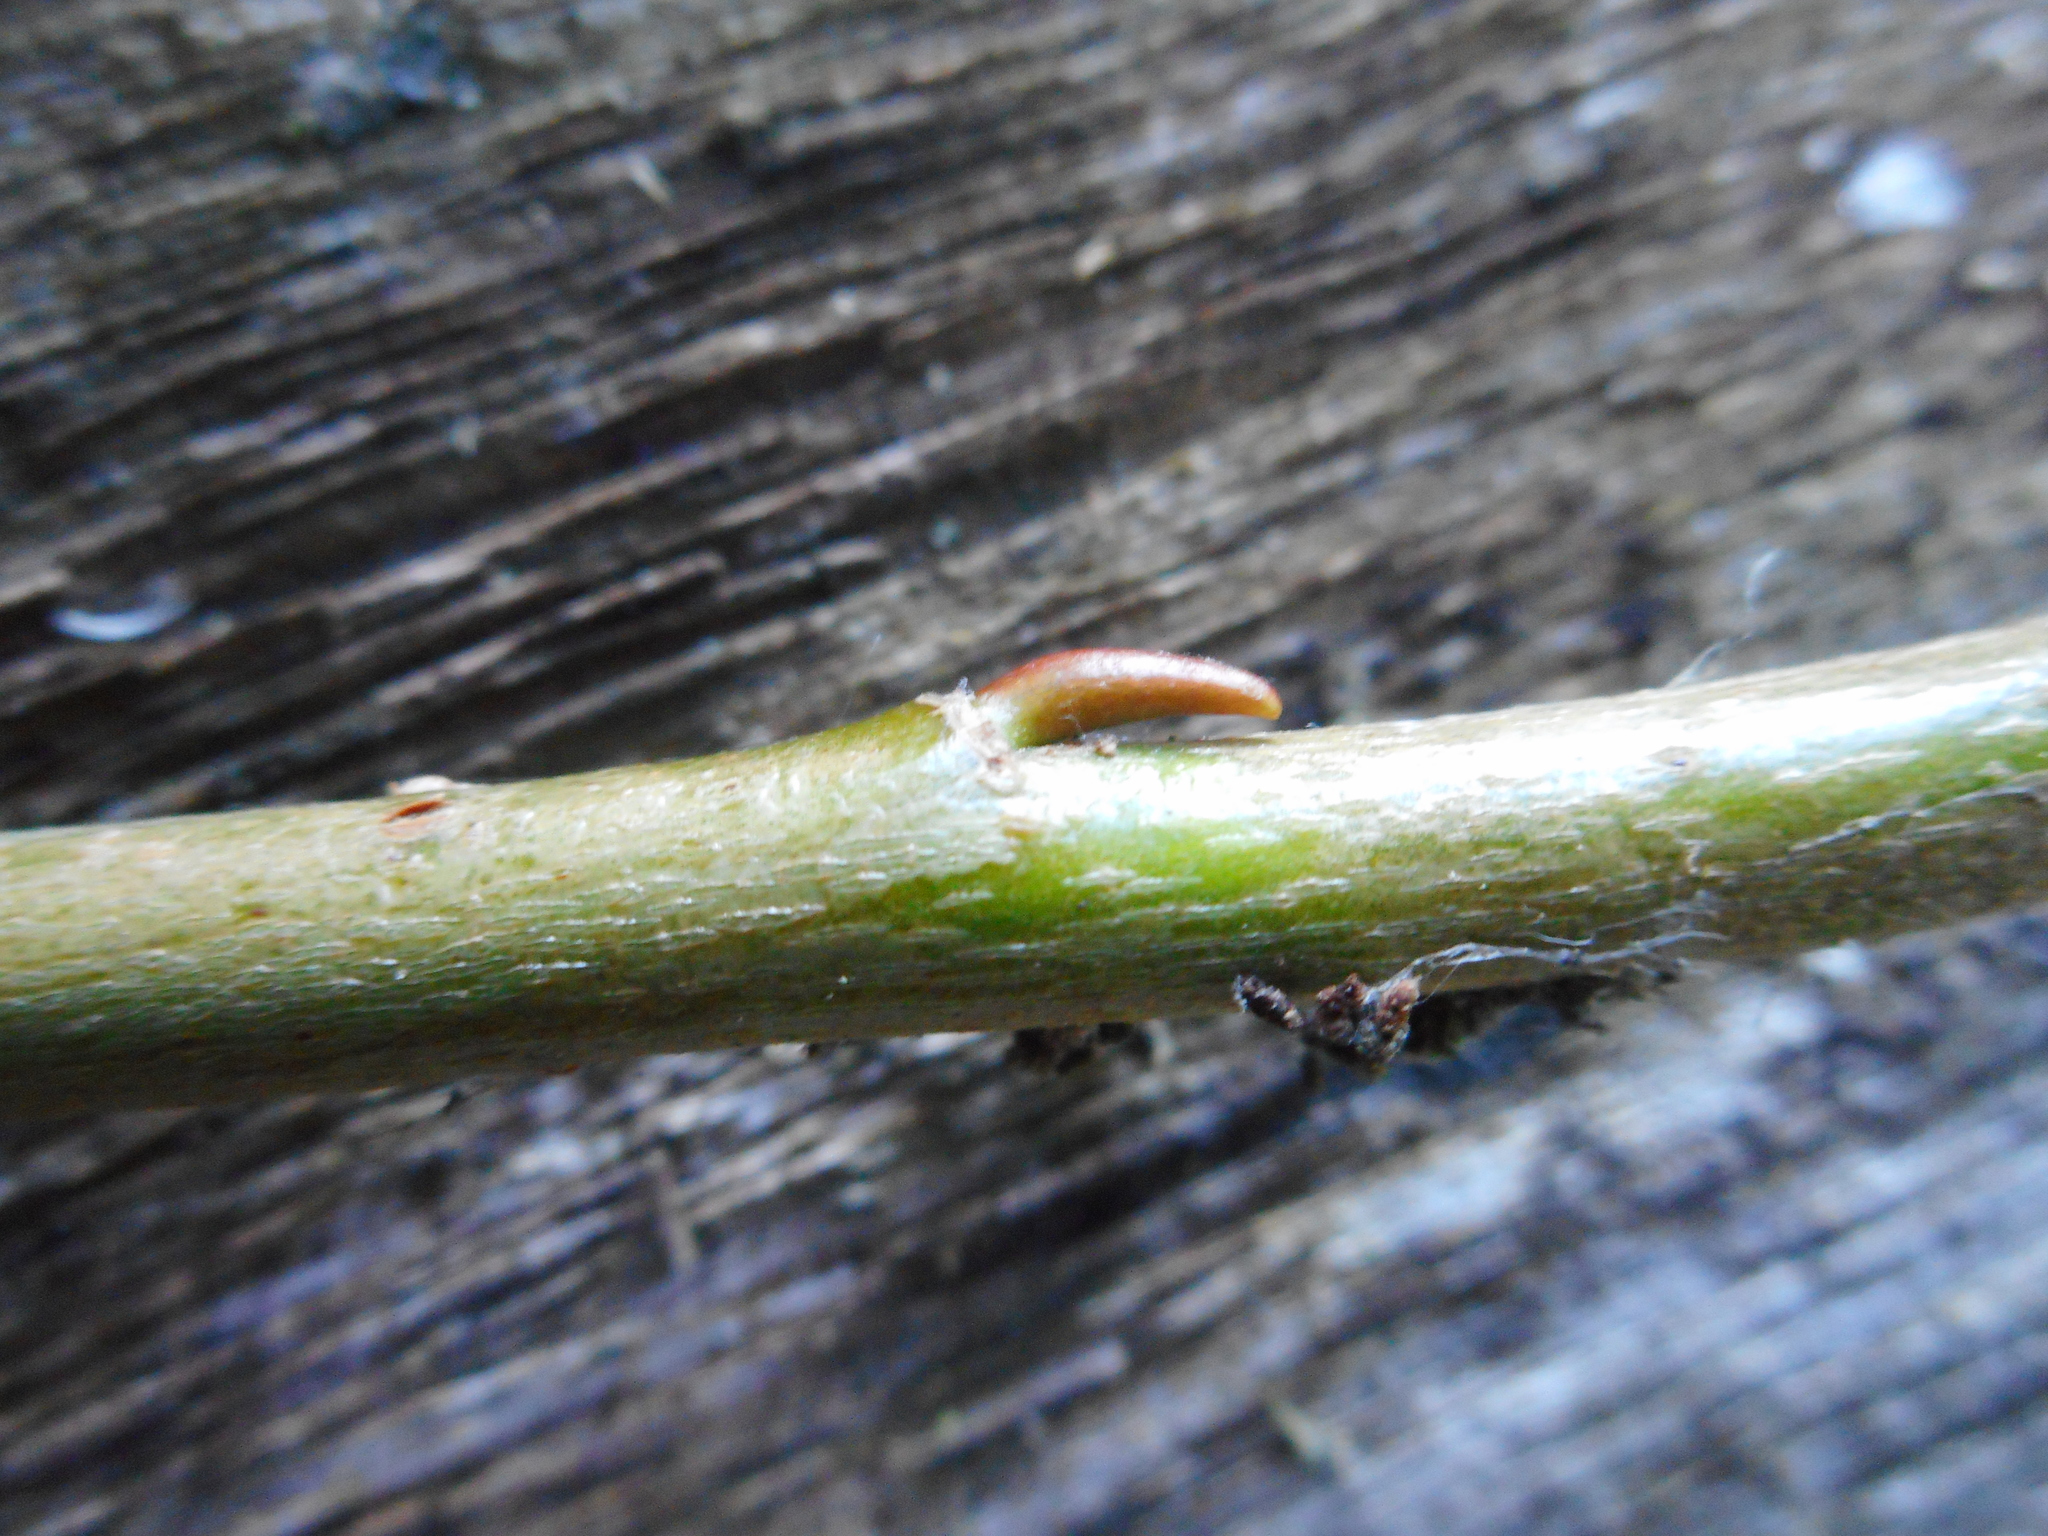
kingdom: Plantae
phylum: Tracheophyta
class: Magnoliopsida
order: Malpighiales
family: Salicaceae
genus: Salix
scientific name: Salix alba
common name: White willow
